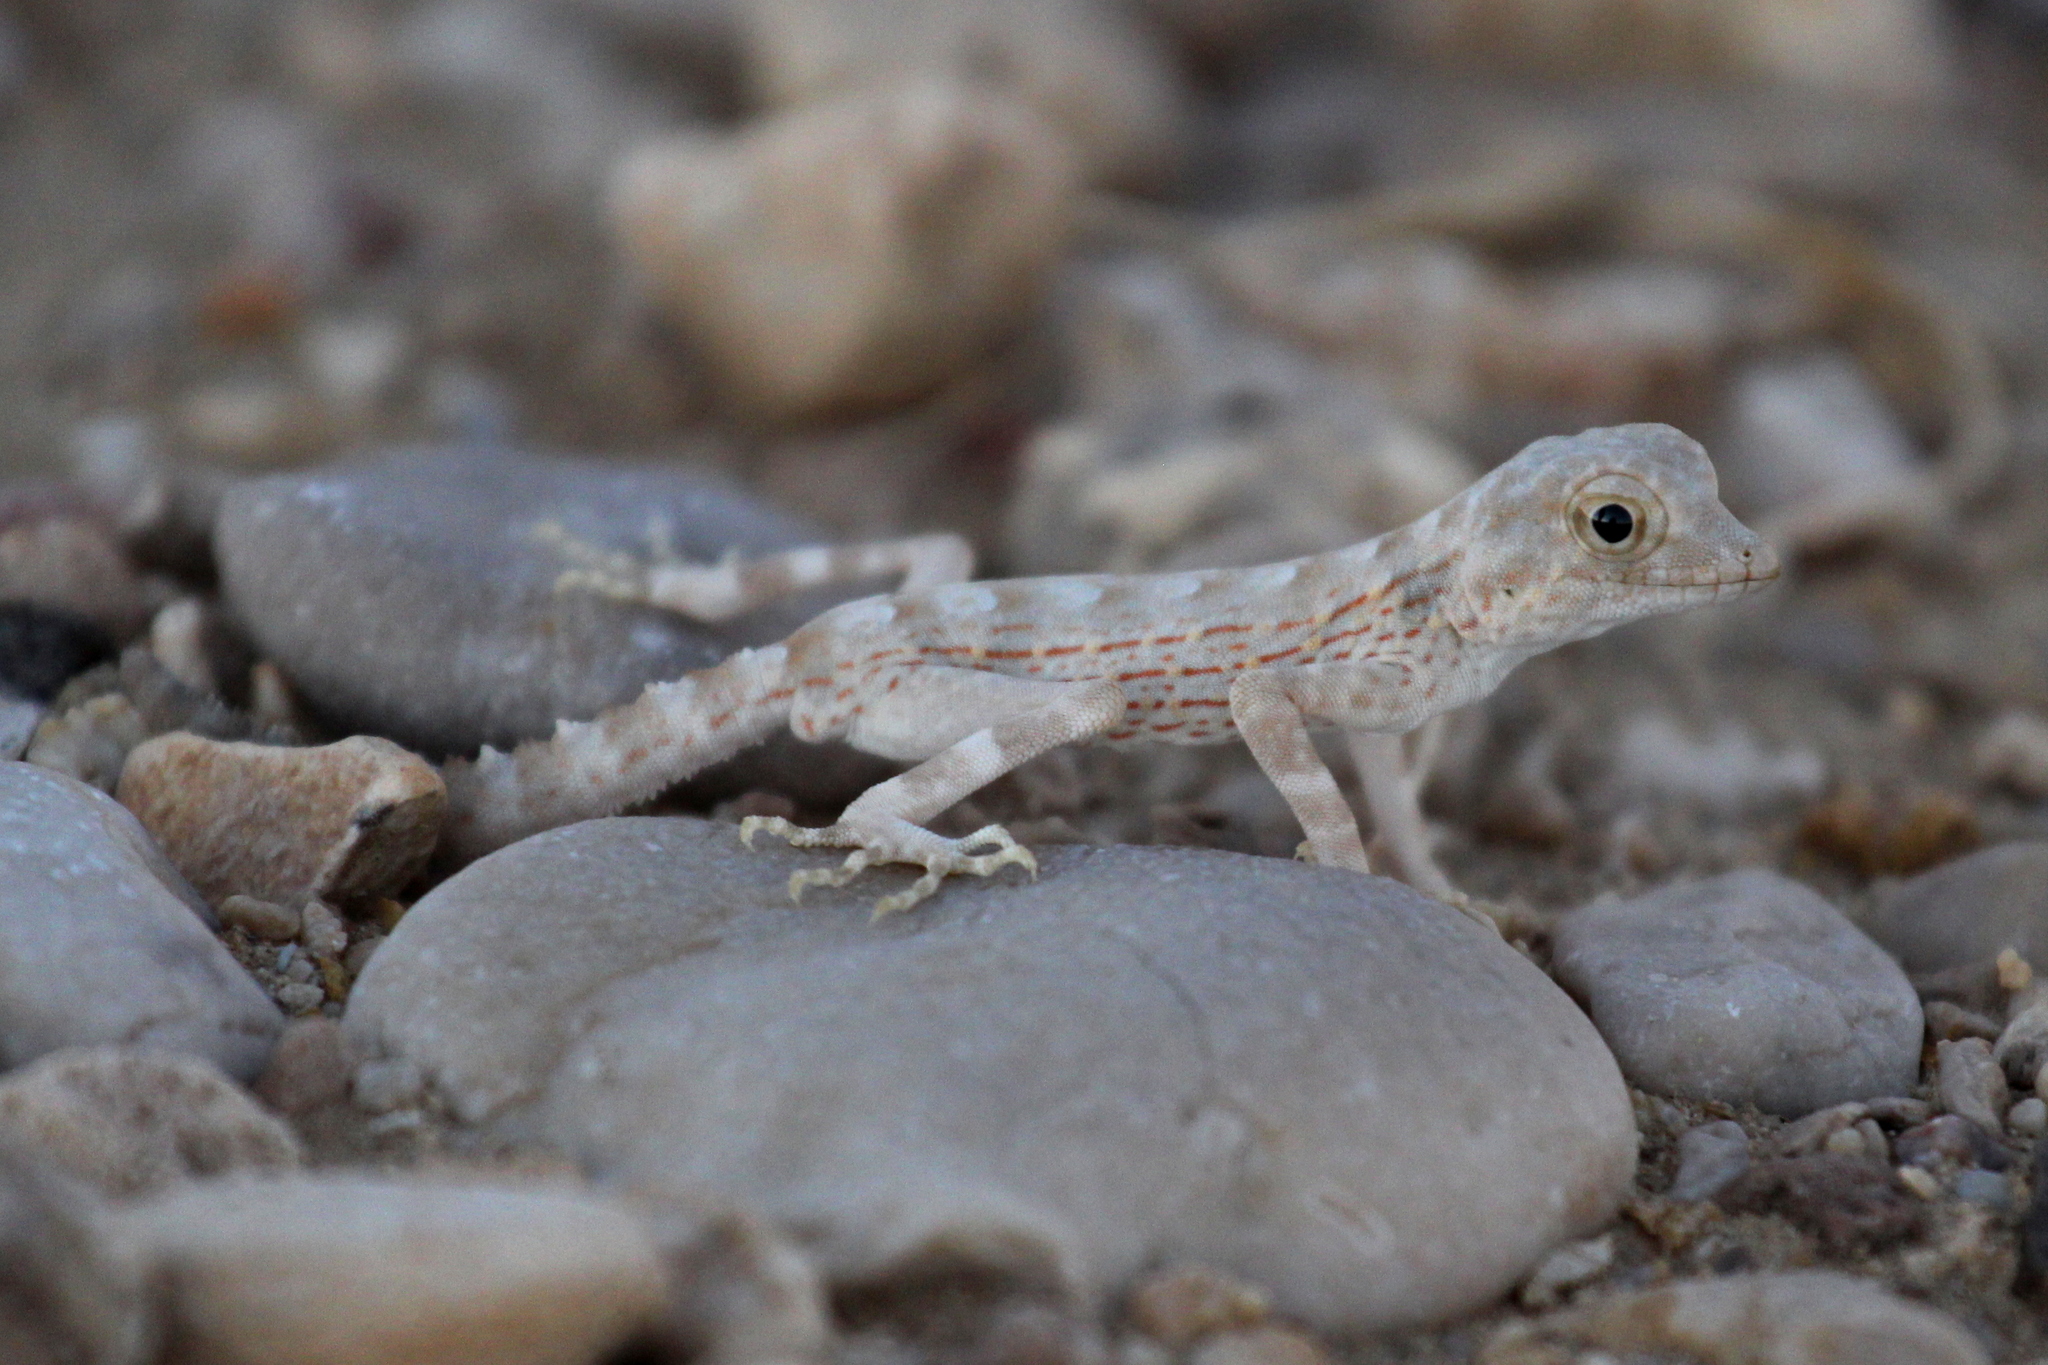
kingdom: Animalia
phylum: Chordata
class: Squamata
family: Sphaerodactylidae
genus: Pristurus
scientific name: Pristurus carteri
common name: Carter's rock gecko
